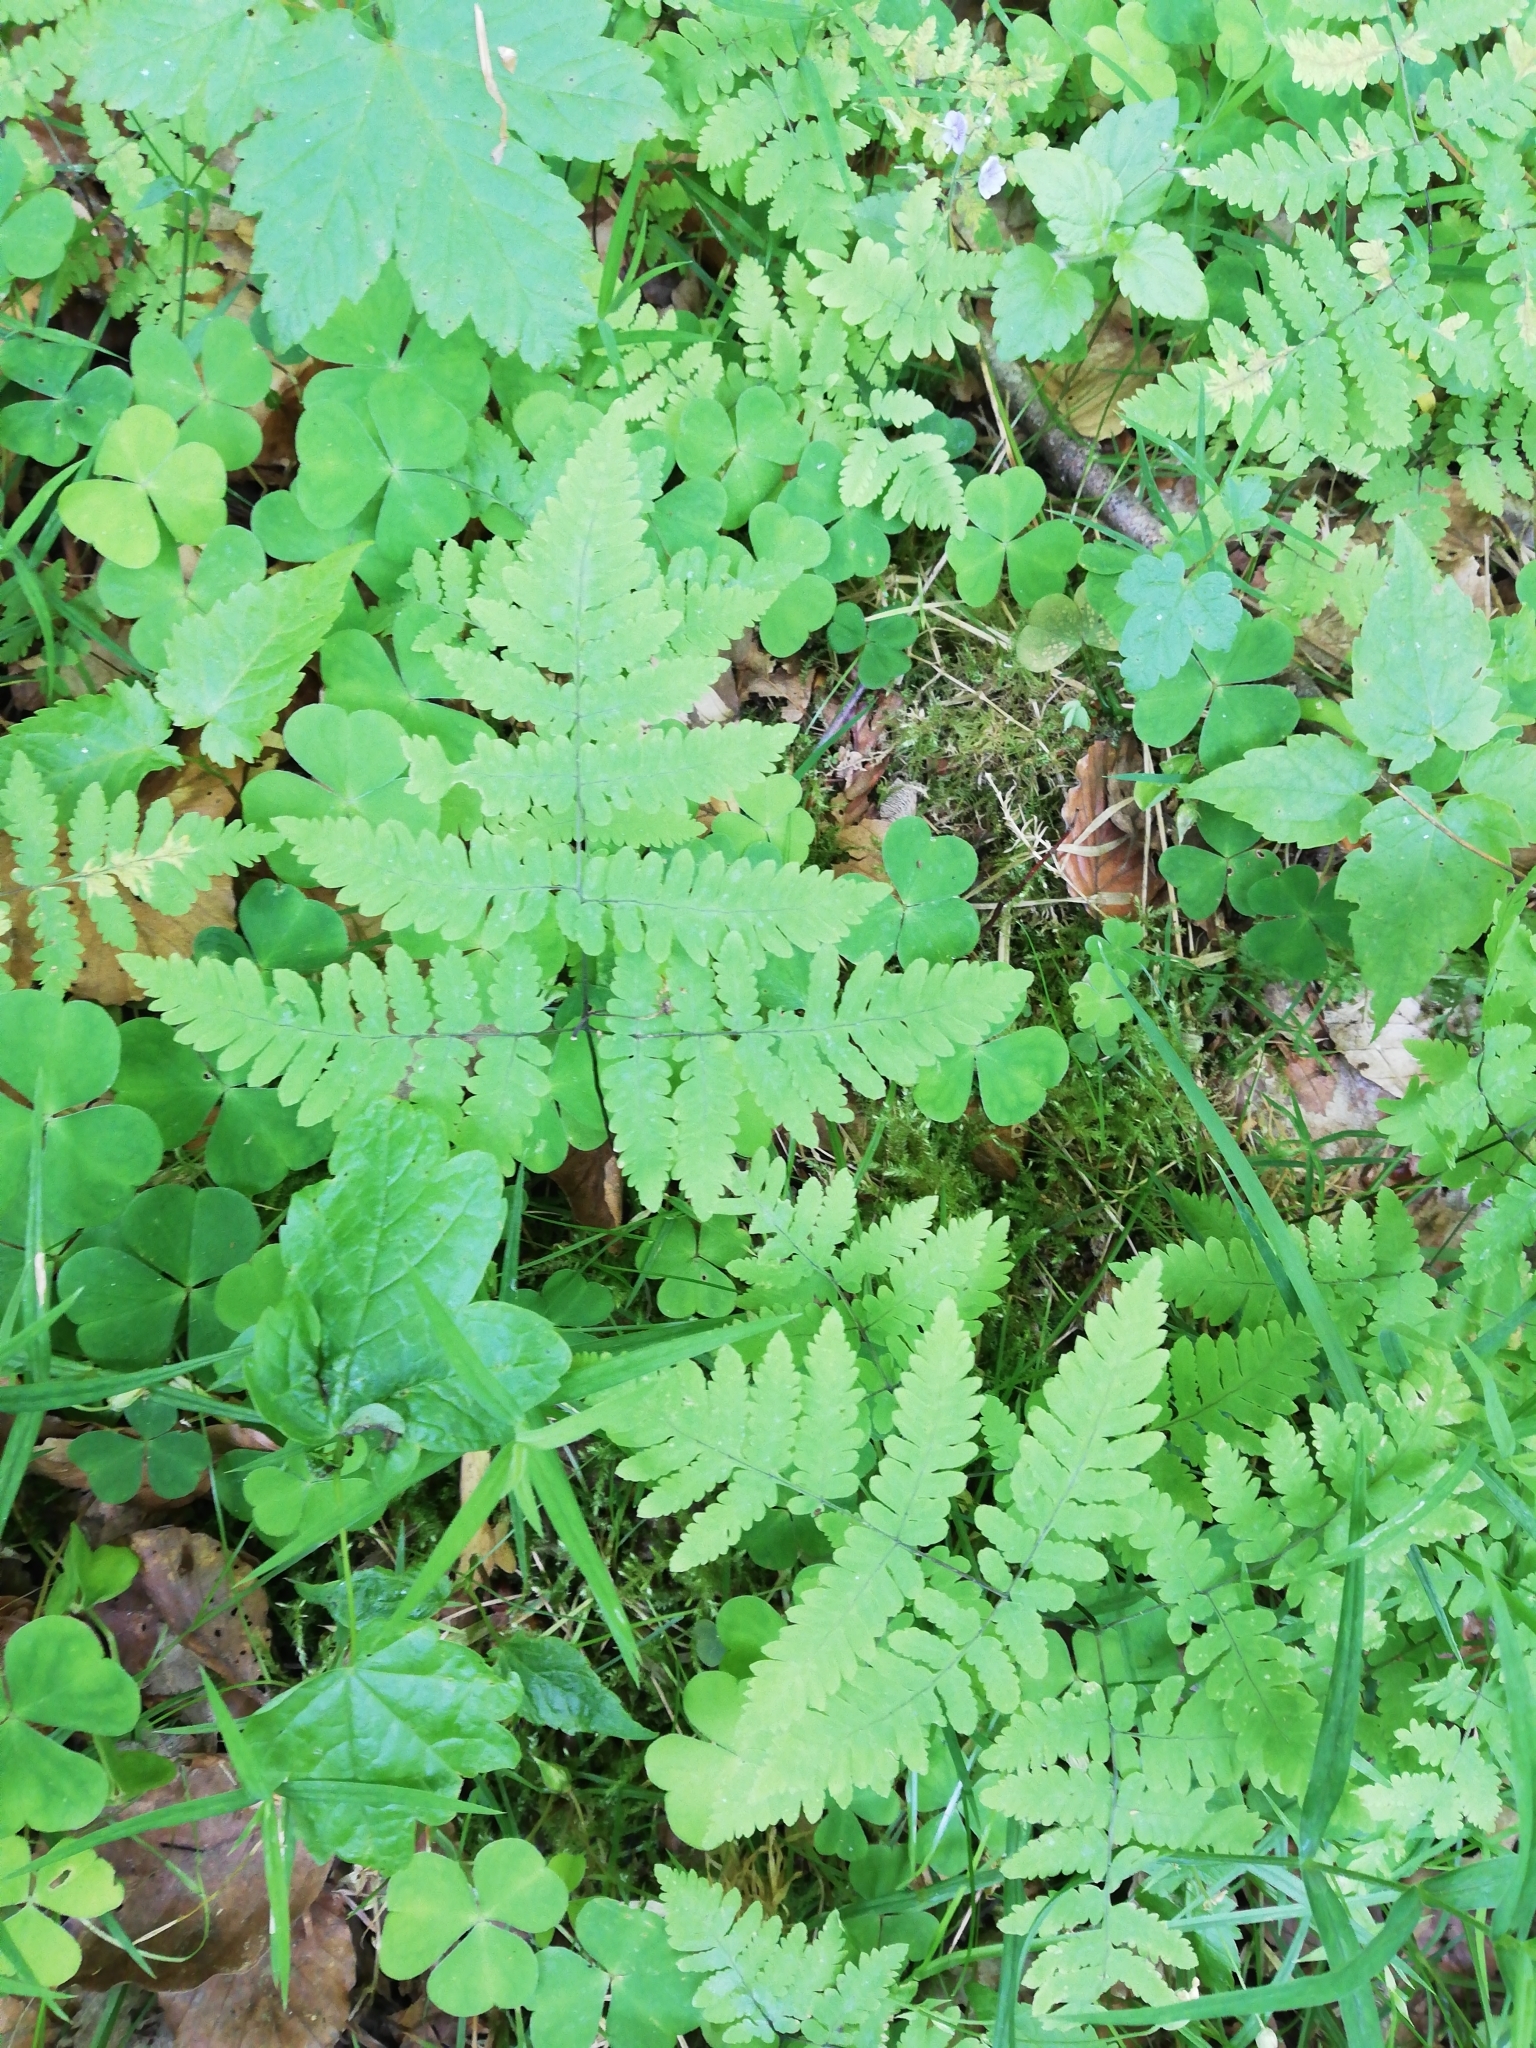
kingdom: Plantae
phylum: Tracheophyta
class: Polypodiopsida
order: Polypodiales
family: Cystopteridaceae
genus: Gymnocarpium
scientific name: Gymnocarpium dryopteris
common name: Oak fern
